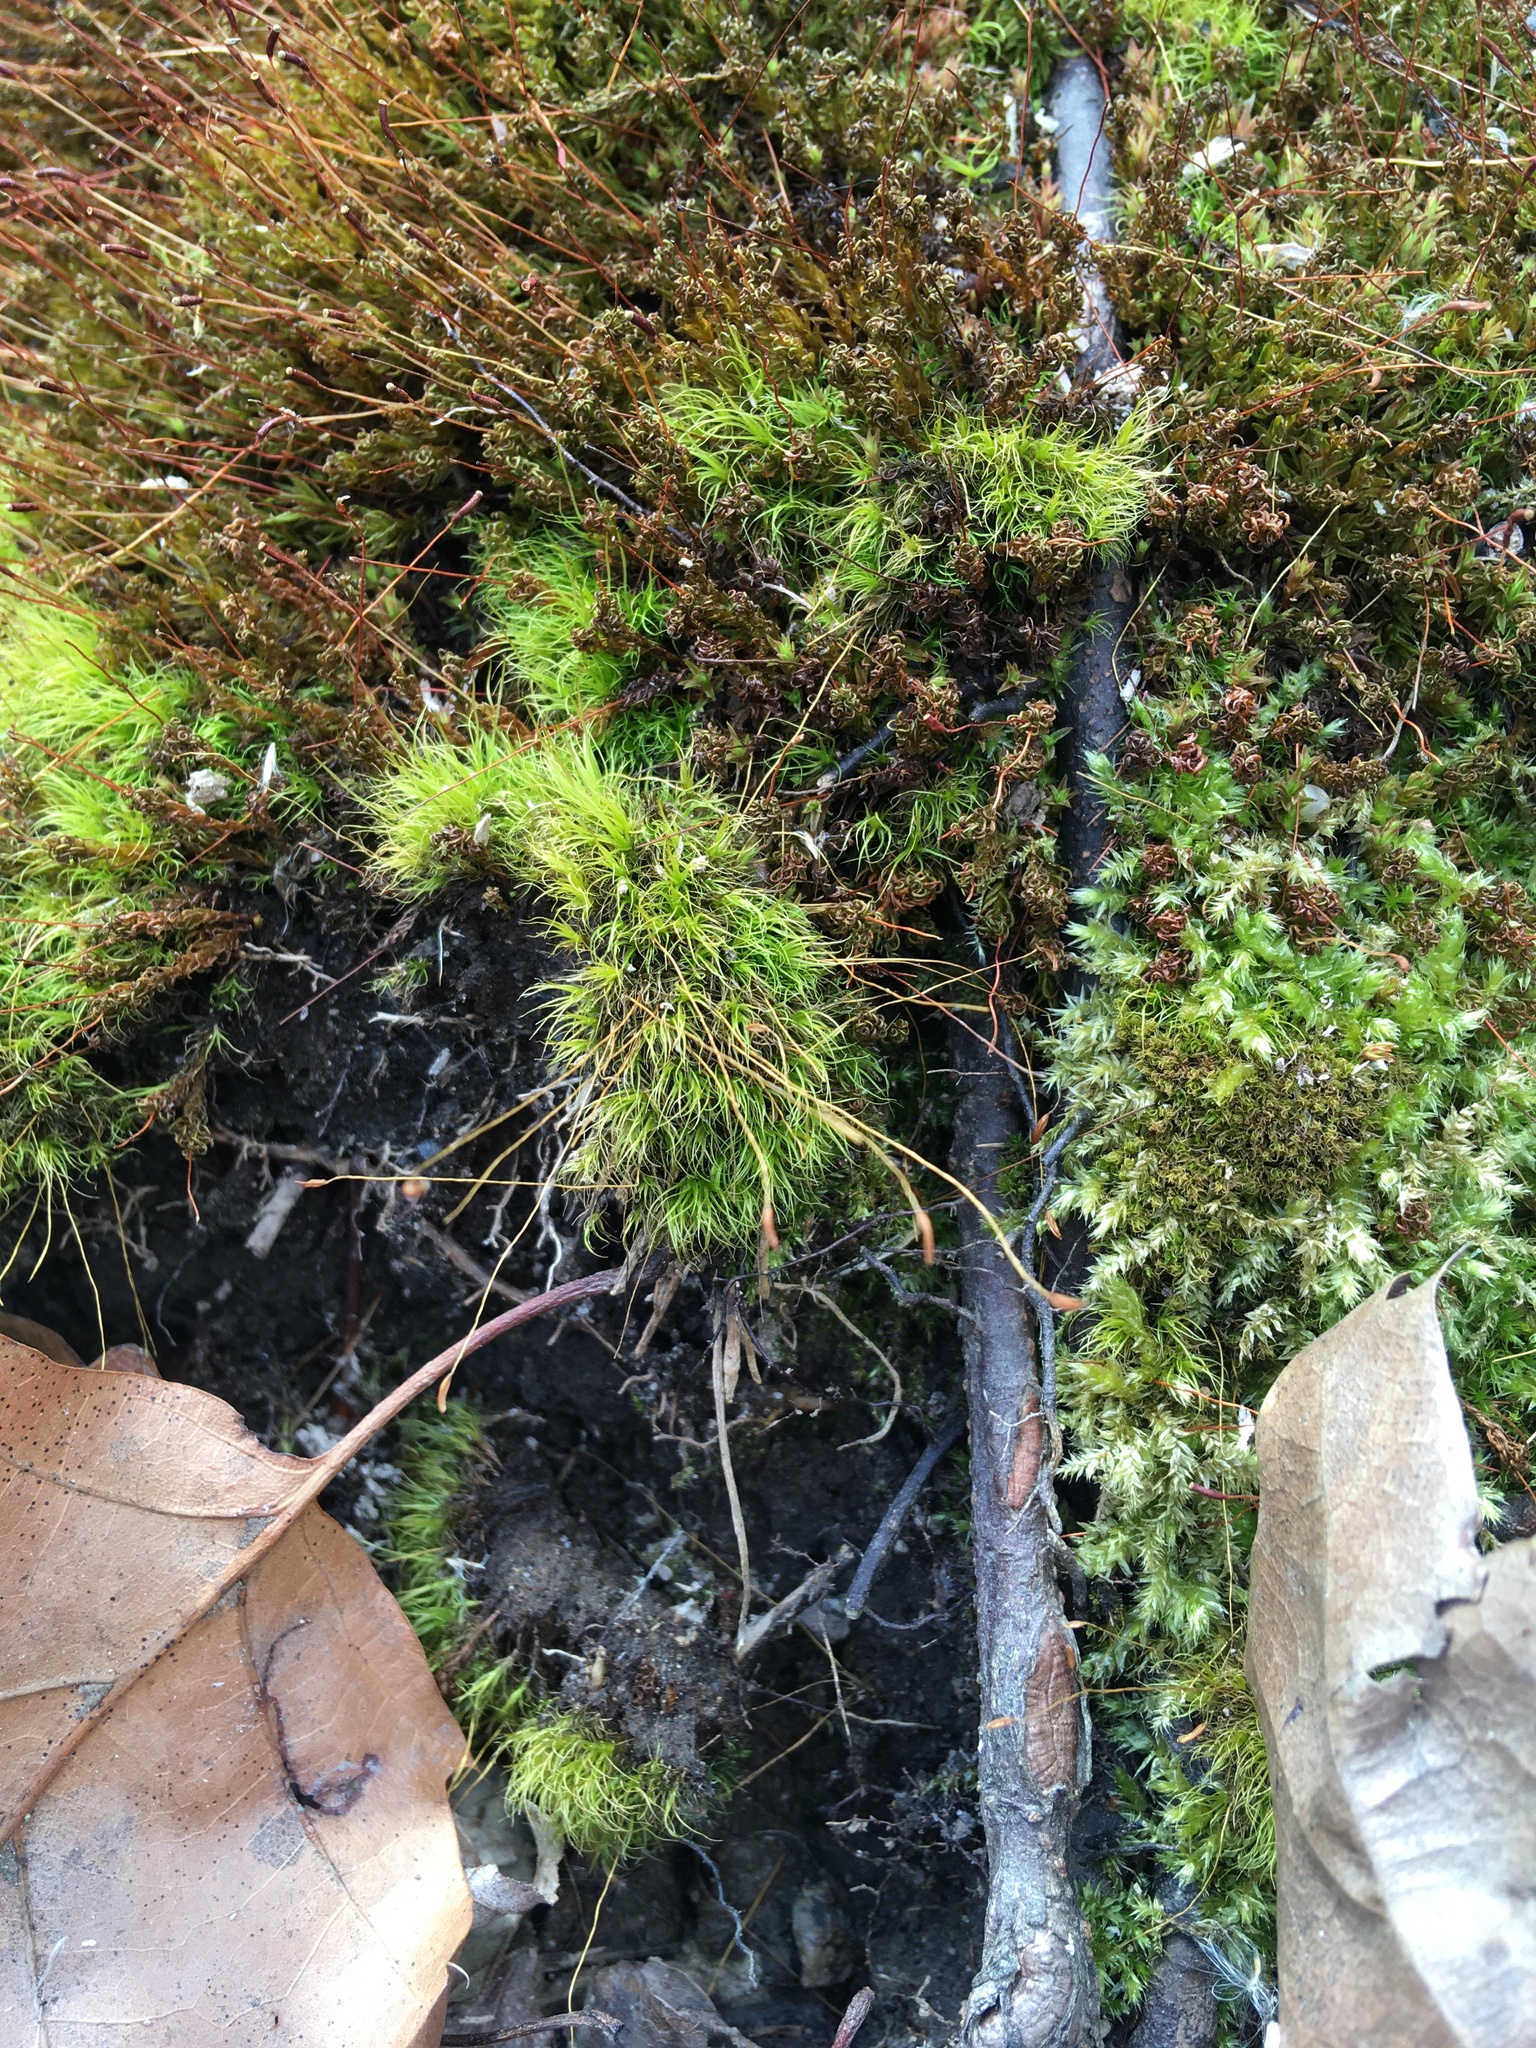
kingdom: Plantae
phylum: Bryophyta
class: Bryopsida
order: Dicranales
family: Dicranaceae
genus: Dicranum
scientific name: Dicranum scoparium
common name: Broom fork-moss
